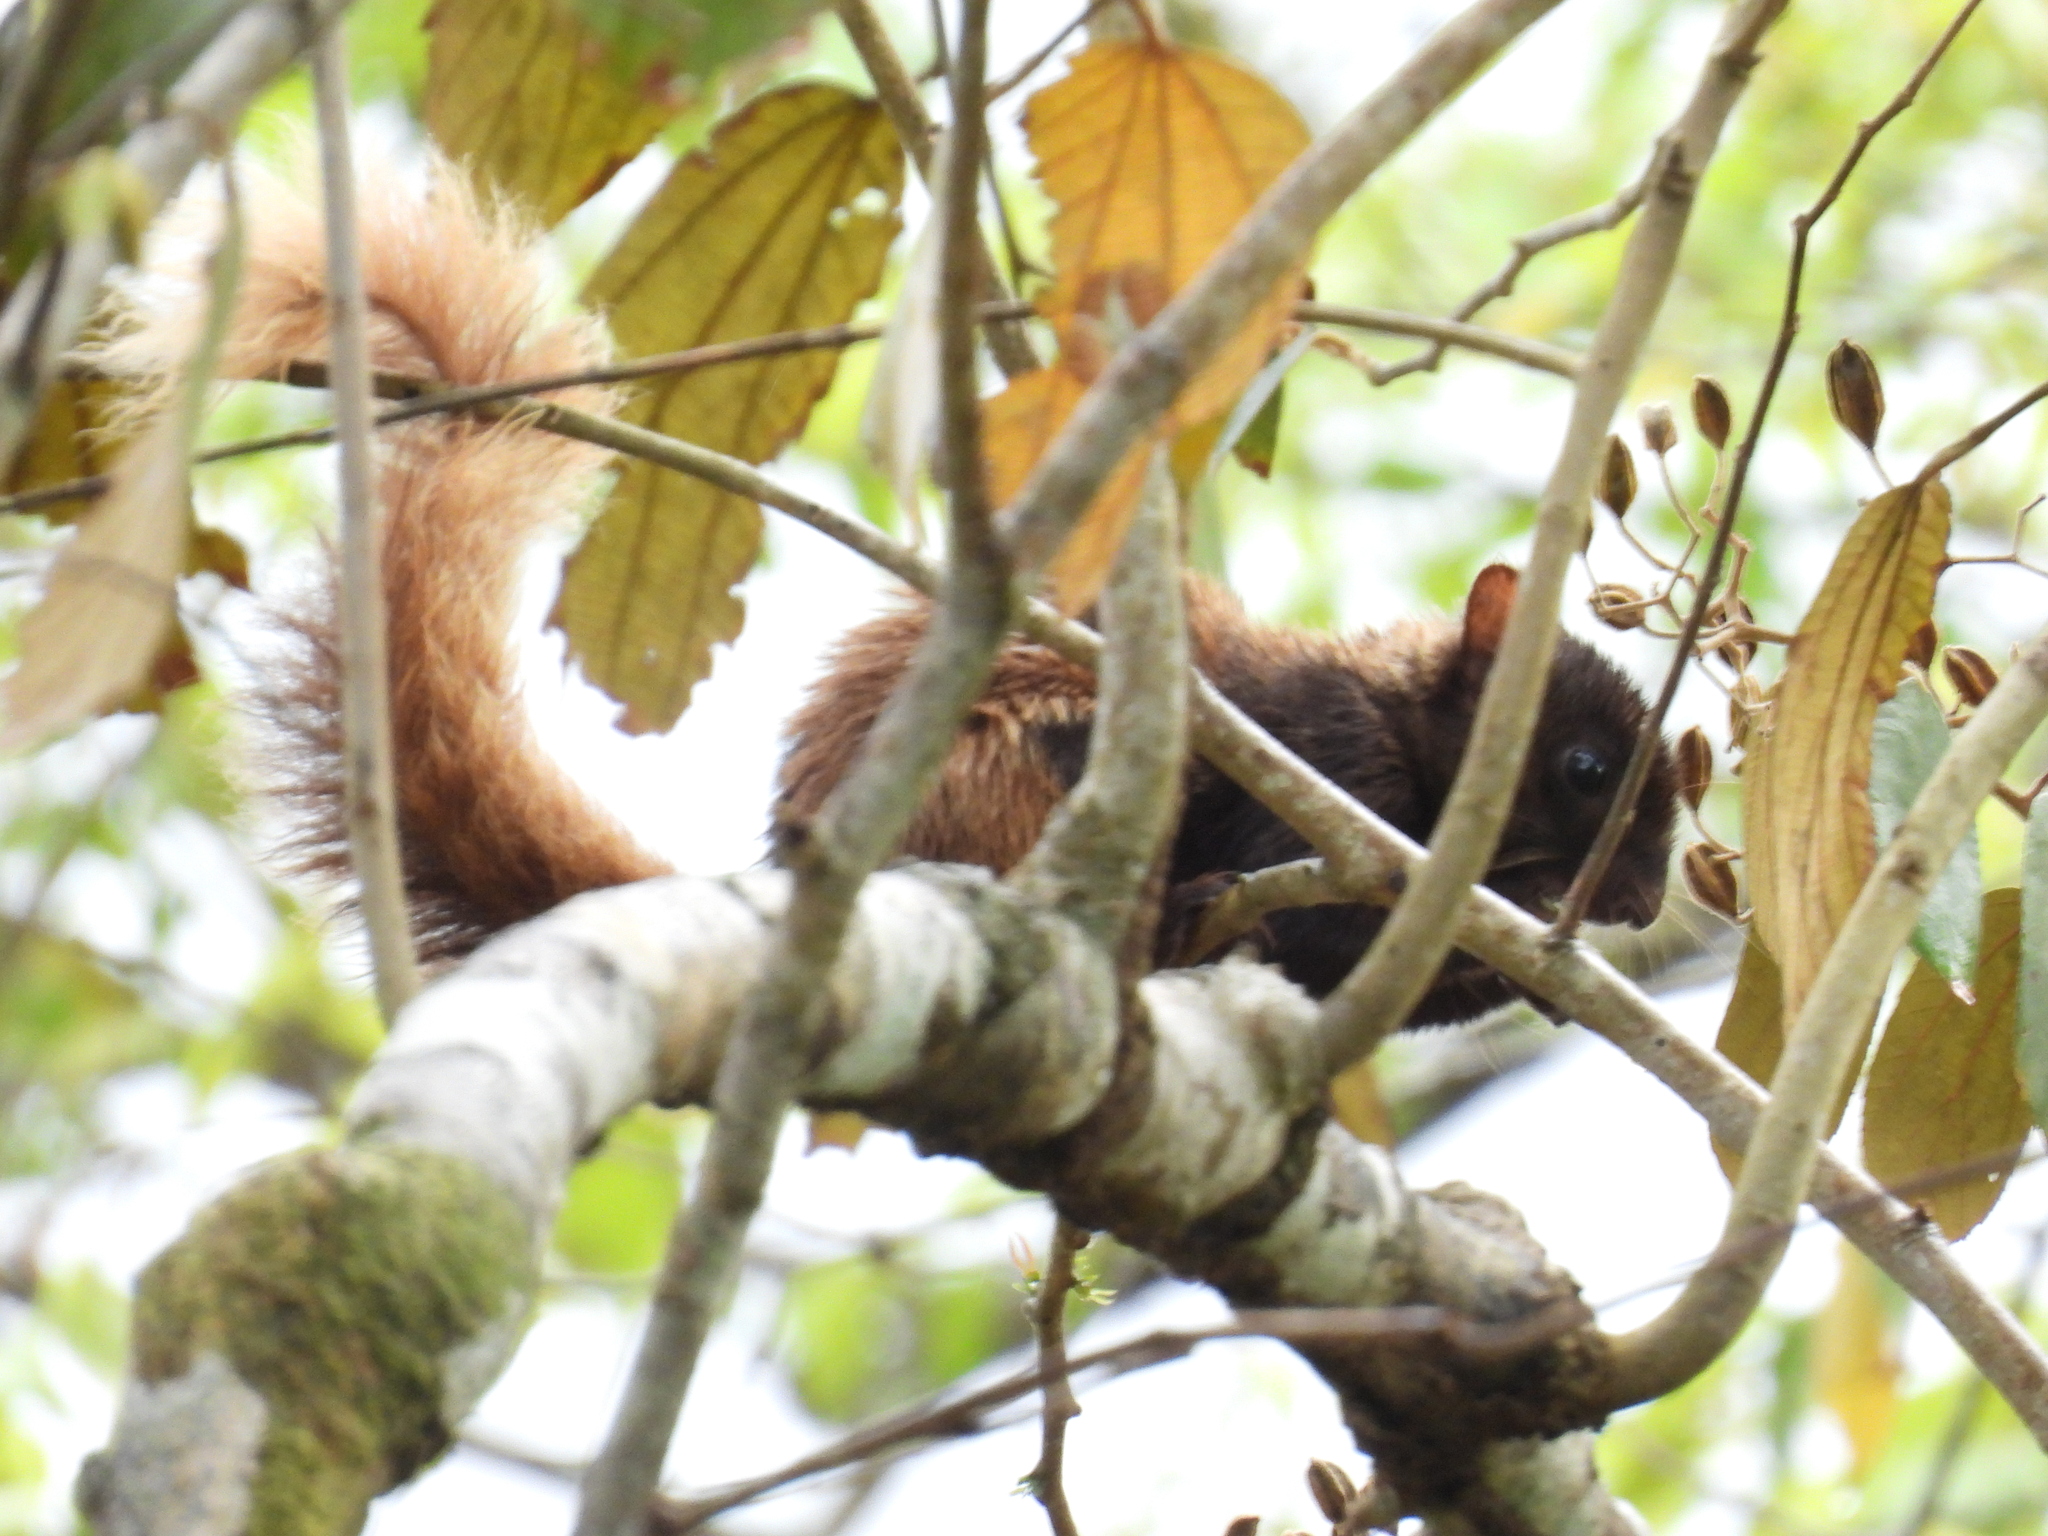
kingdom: Animalia
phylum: Chordata
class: Mammalia
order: Rodentia
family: Sciuridae
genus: Sciurus
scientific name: Sciurus granatensis
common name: Red-tailed squirrel
